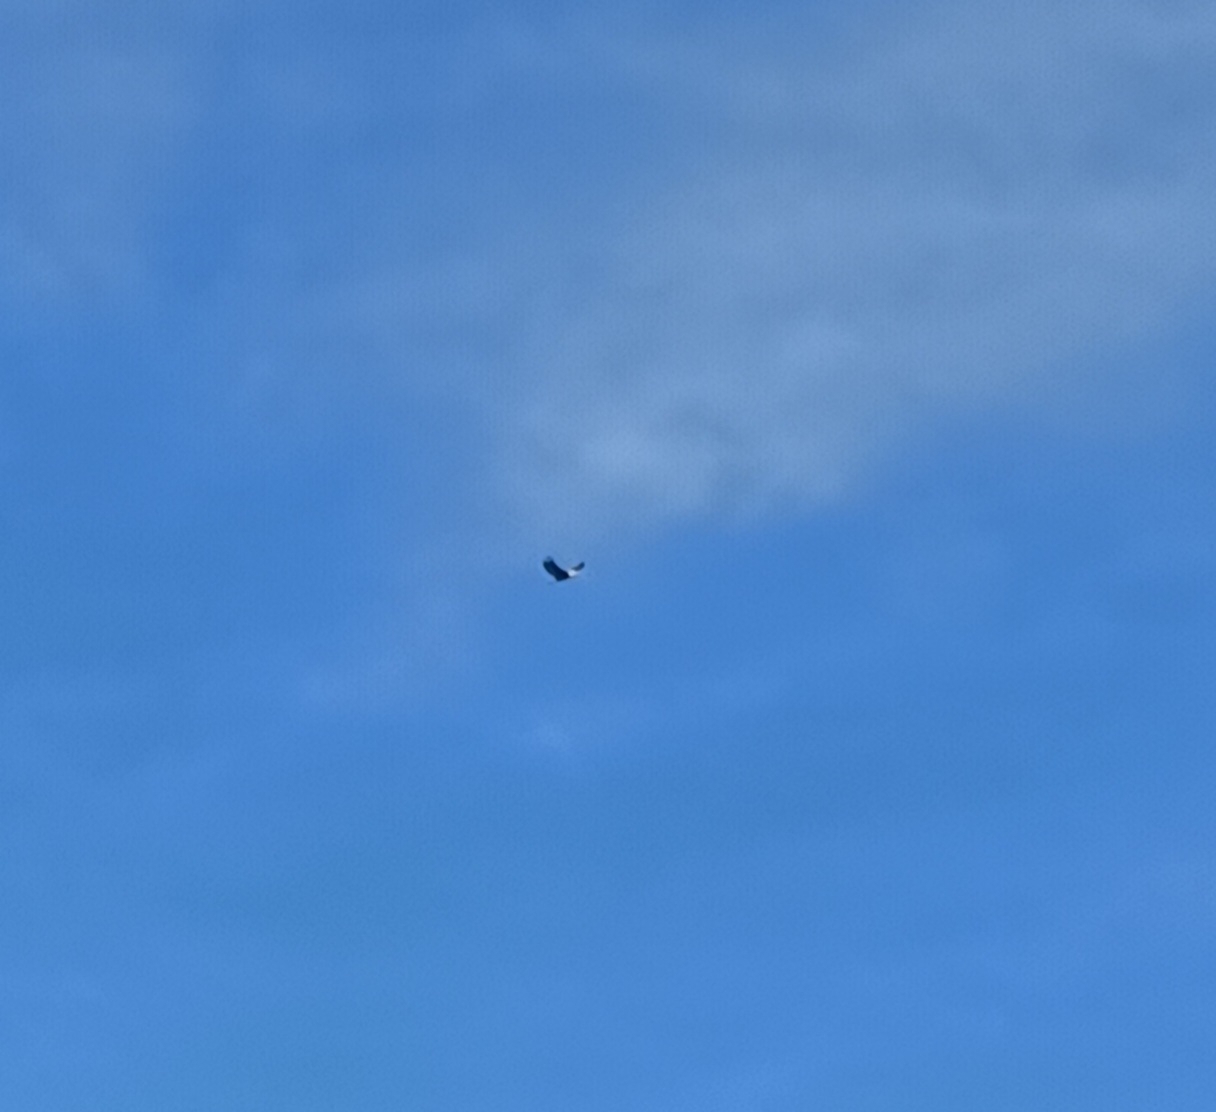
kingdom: Animalia
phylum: Chordata
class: Aves
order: Accipitriformes
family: Accipitridae
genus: Haliaeetus
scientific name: Haliaeetus leucocephalus
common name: Bald eagle
